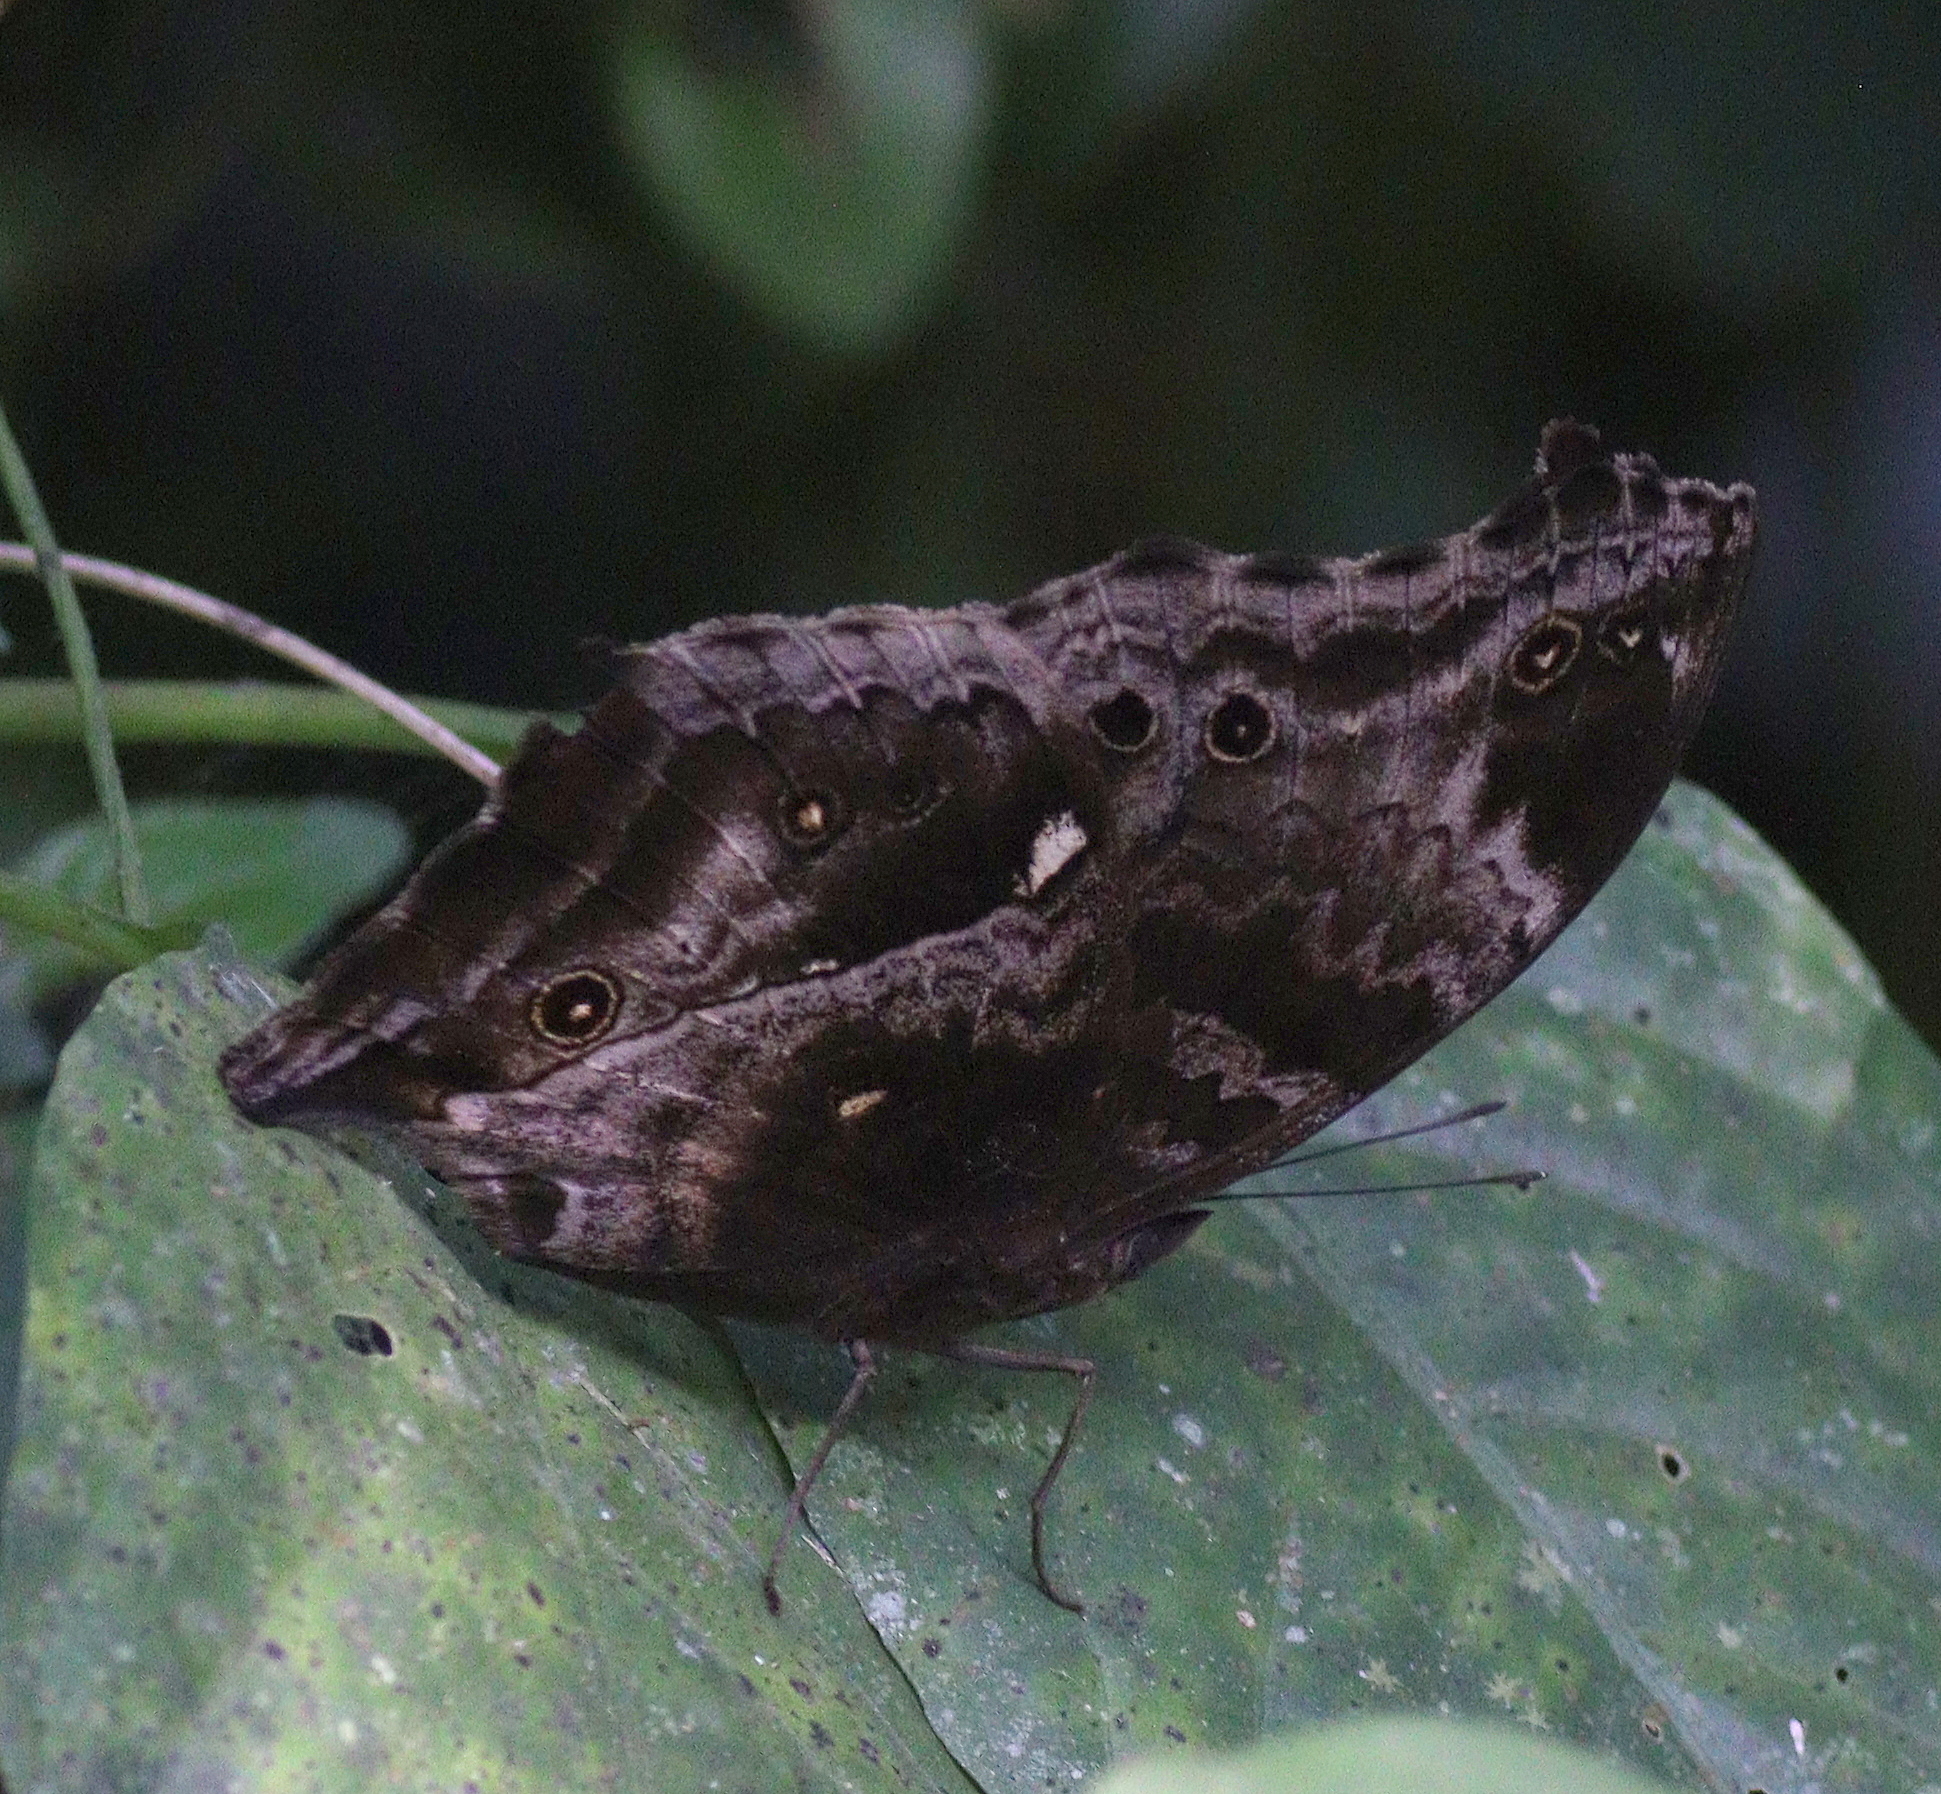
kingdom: Animalia
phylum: Arthropoda
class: Insecta
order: Lepidoptera
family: Nymphalidae
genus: Junonia
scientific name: Junonia
